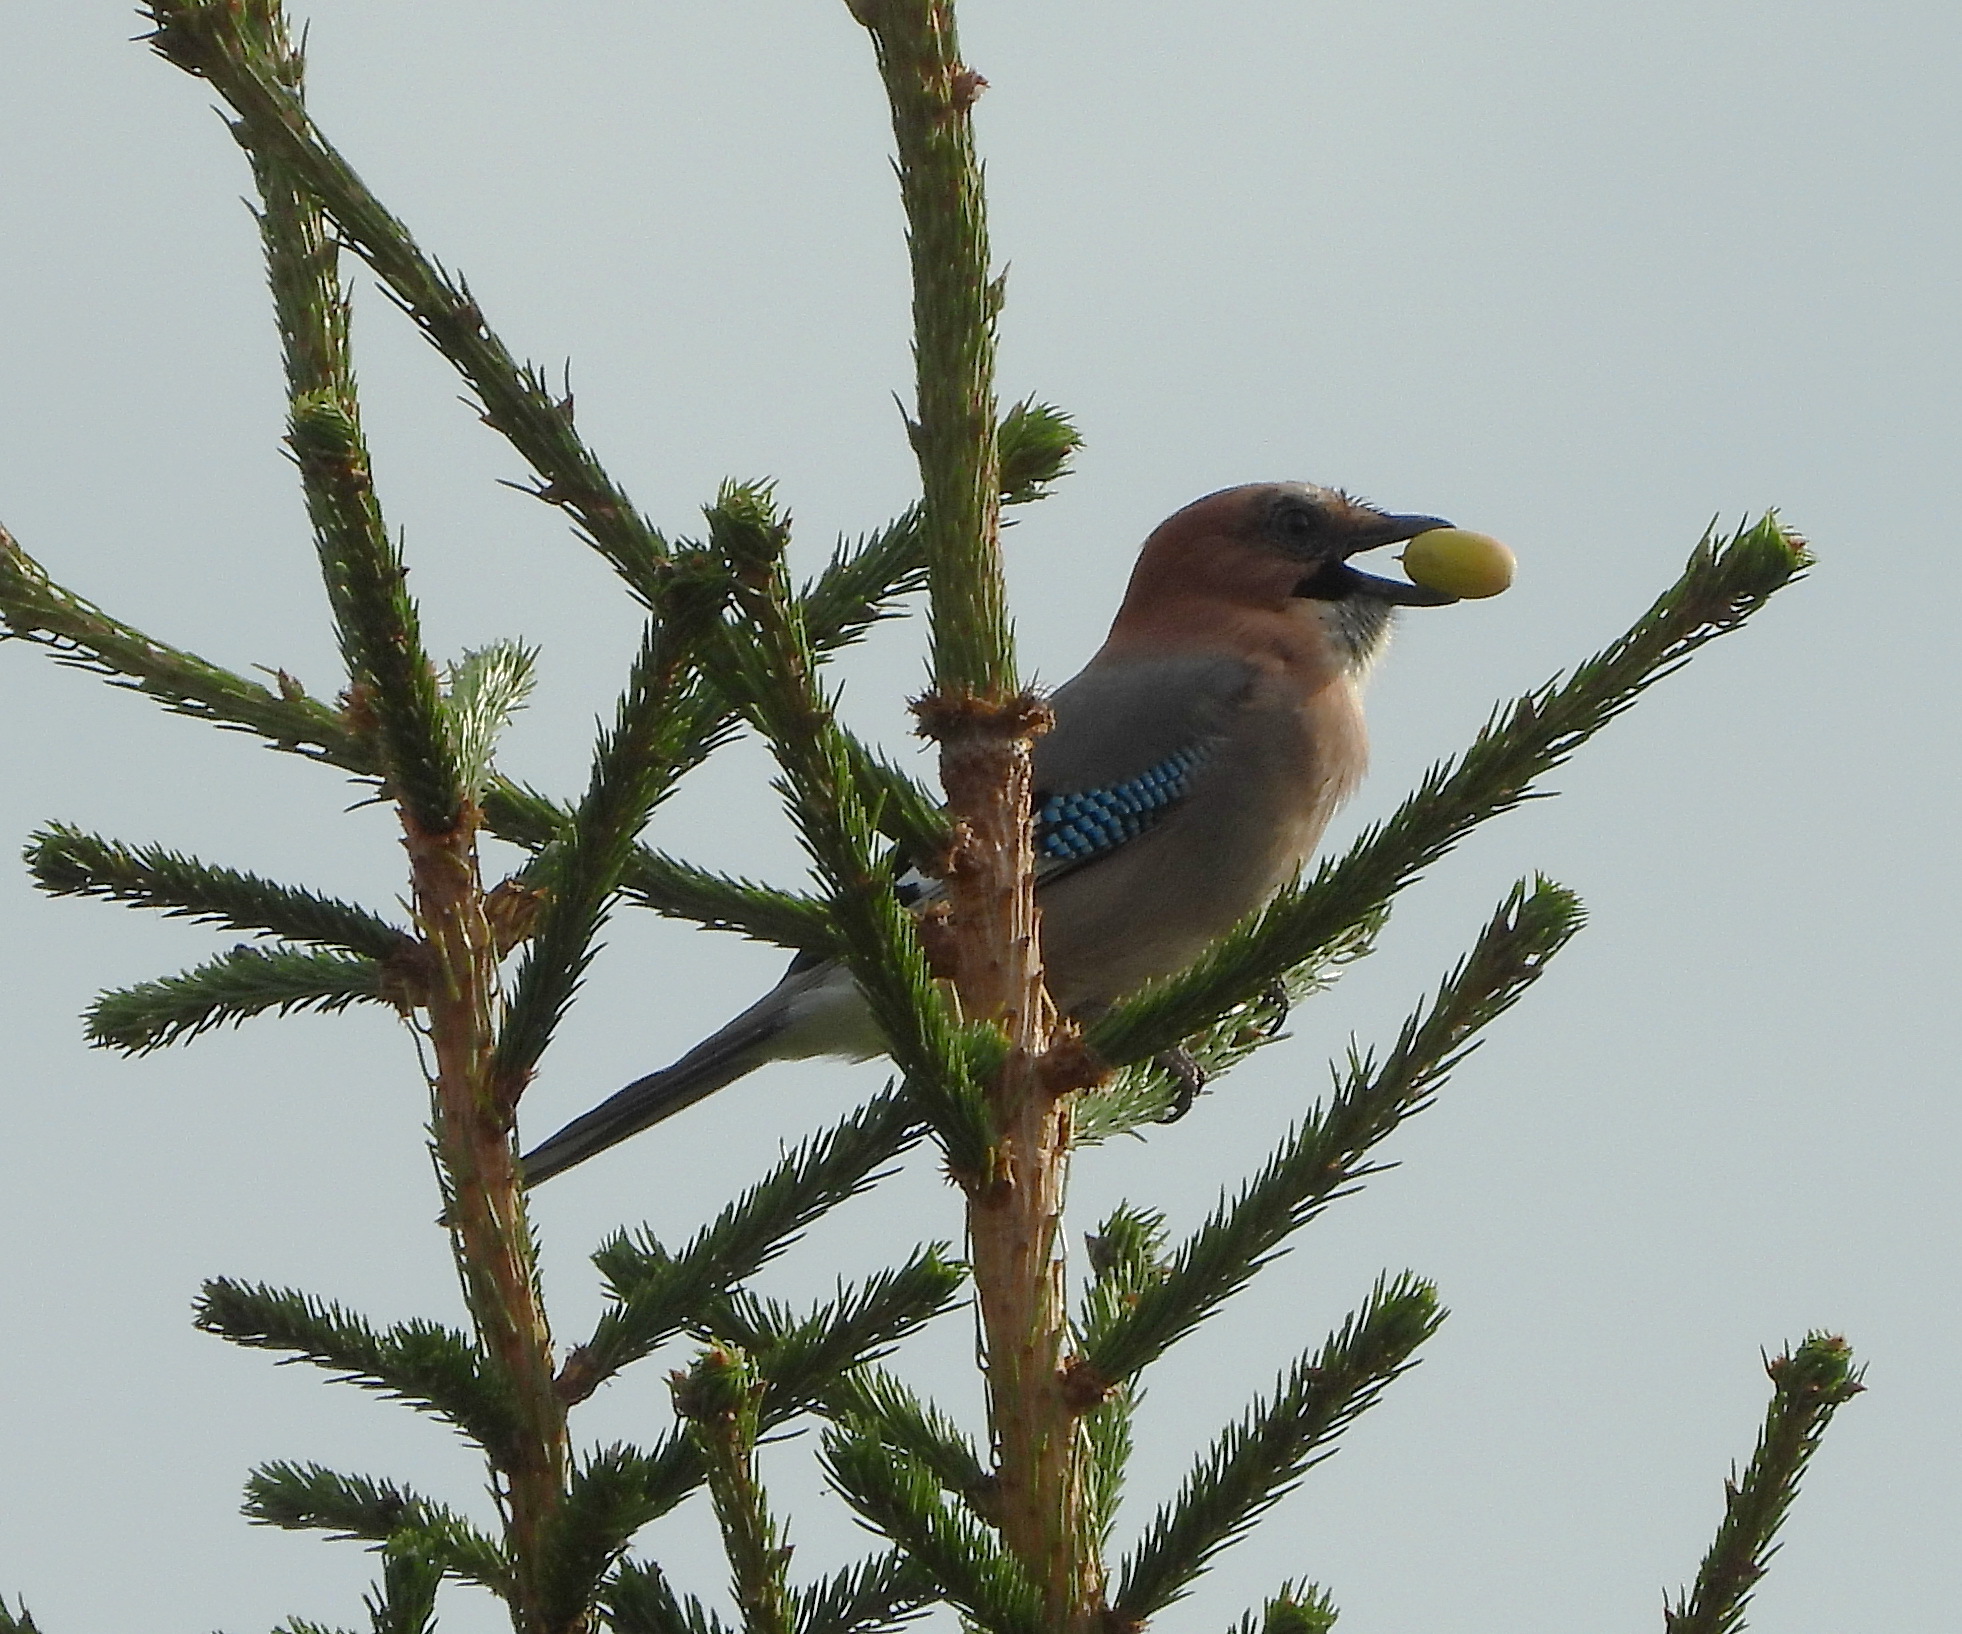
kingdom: Animalia
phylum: Chordata
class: Aves
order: Passeriformes
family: Corvidae
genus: Garrulus
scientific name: Garrulus glandarius
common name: Eurasian jay
